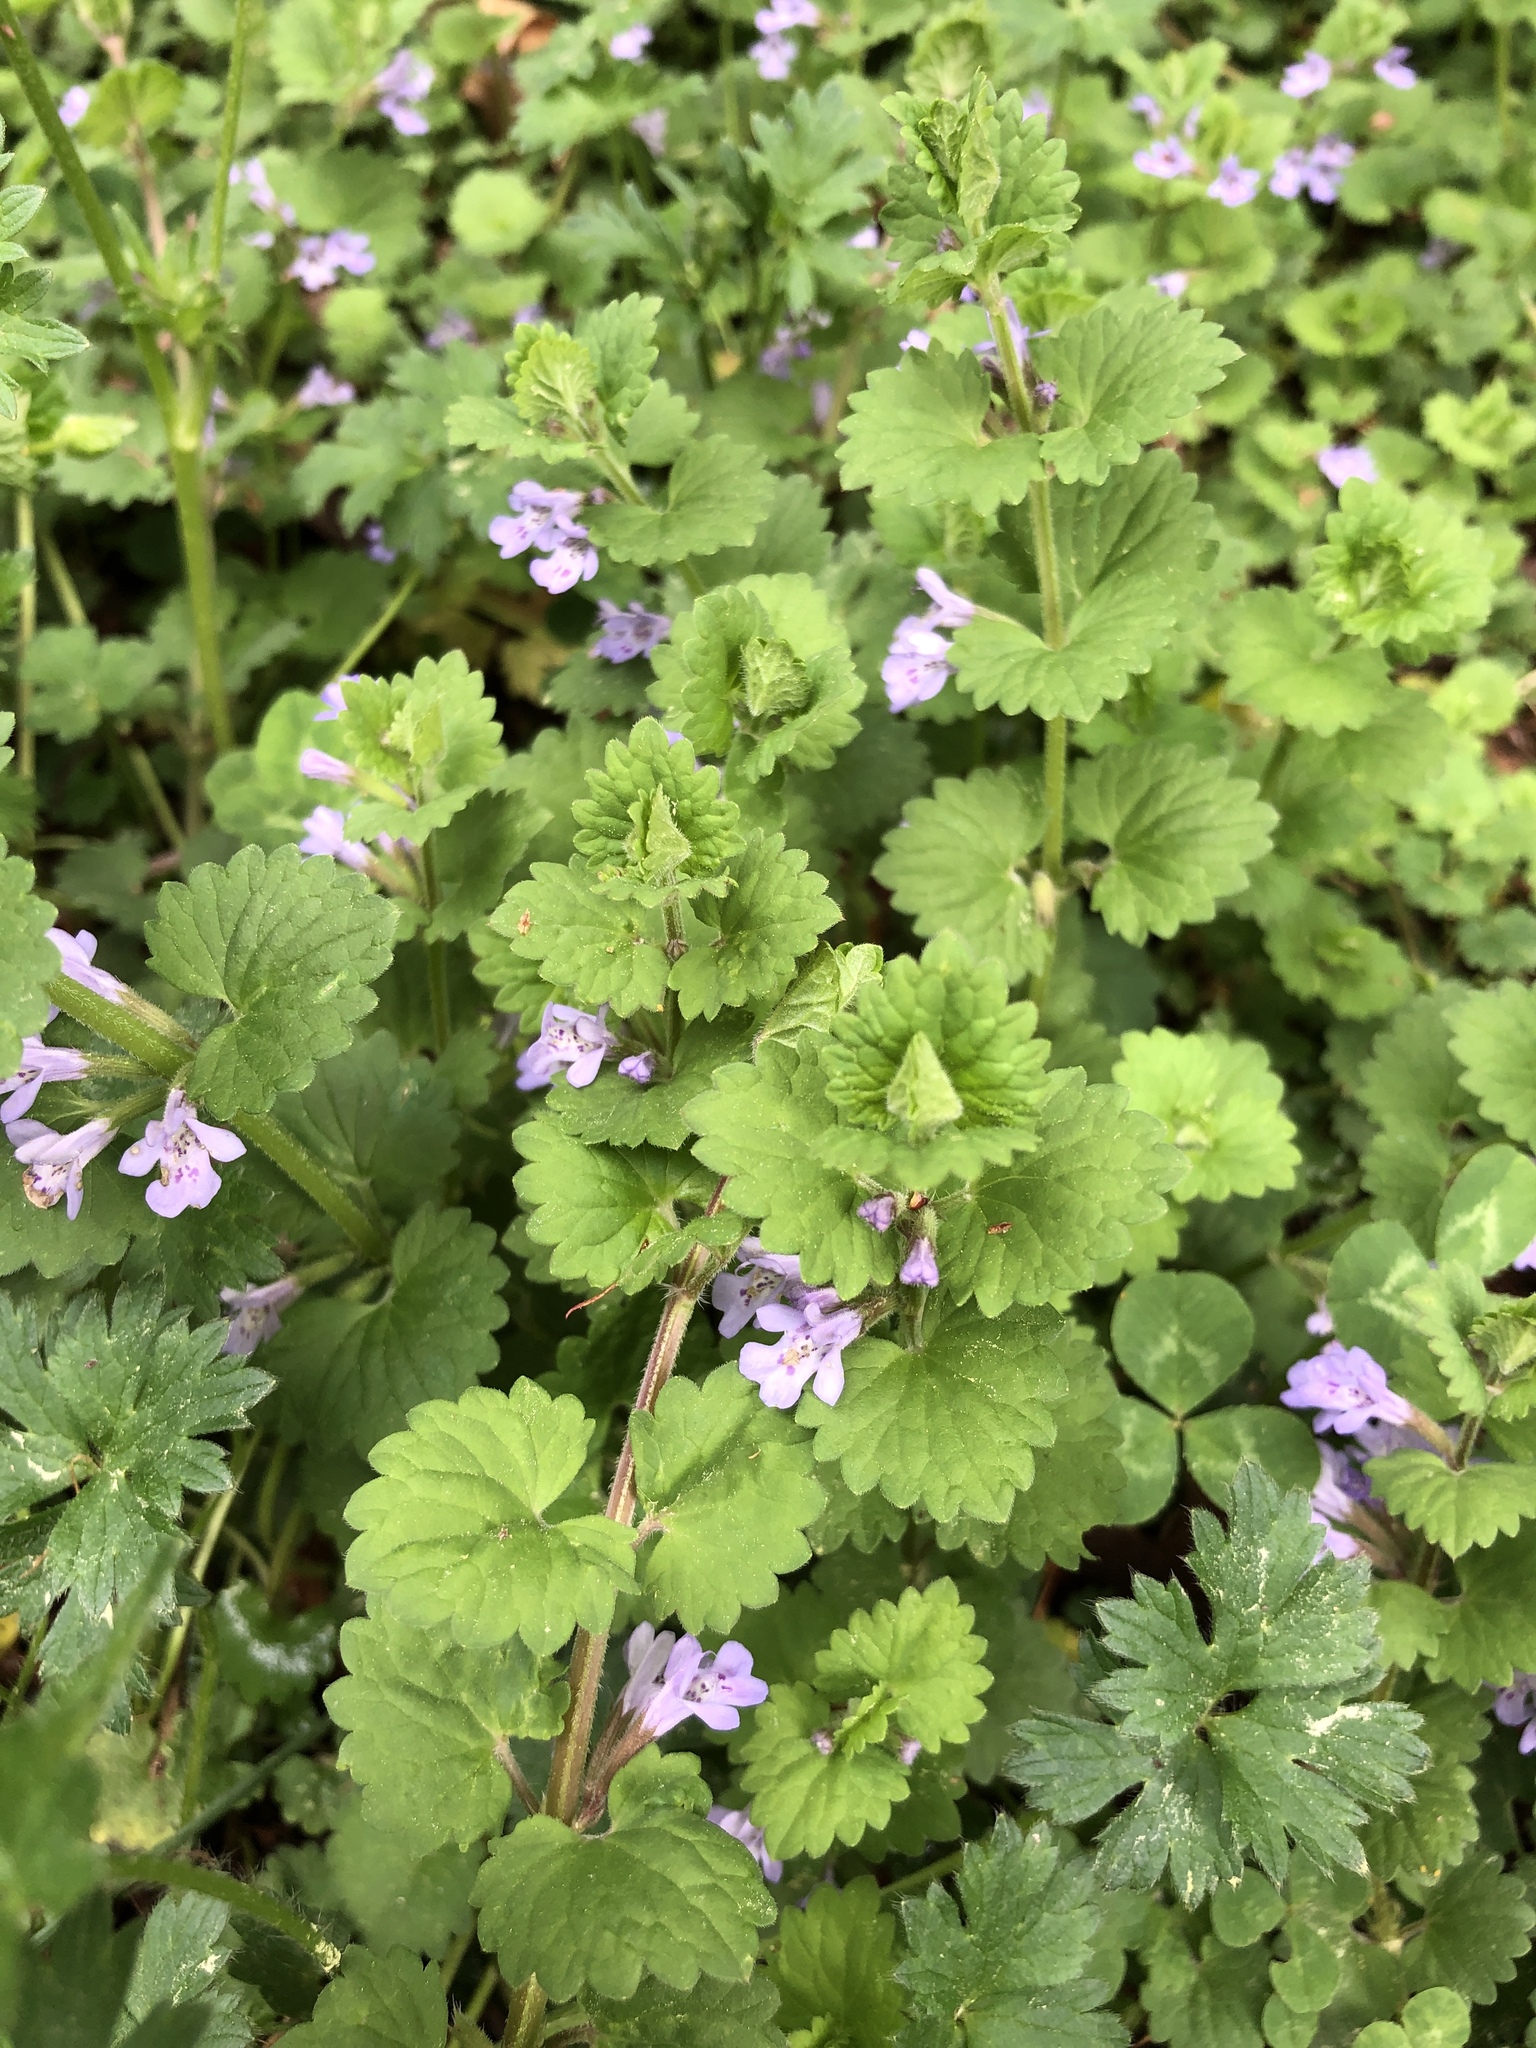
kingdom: Plantae
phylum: Tracheophyta
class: Magnoliopsida
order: Lamiales
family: Lamiaceae
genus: Glechoma
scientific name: Glechoma hederacea
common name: Ground ivy
